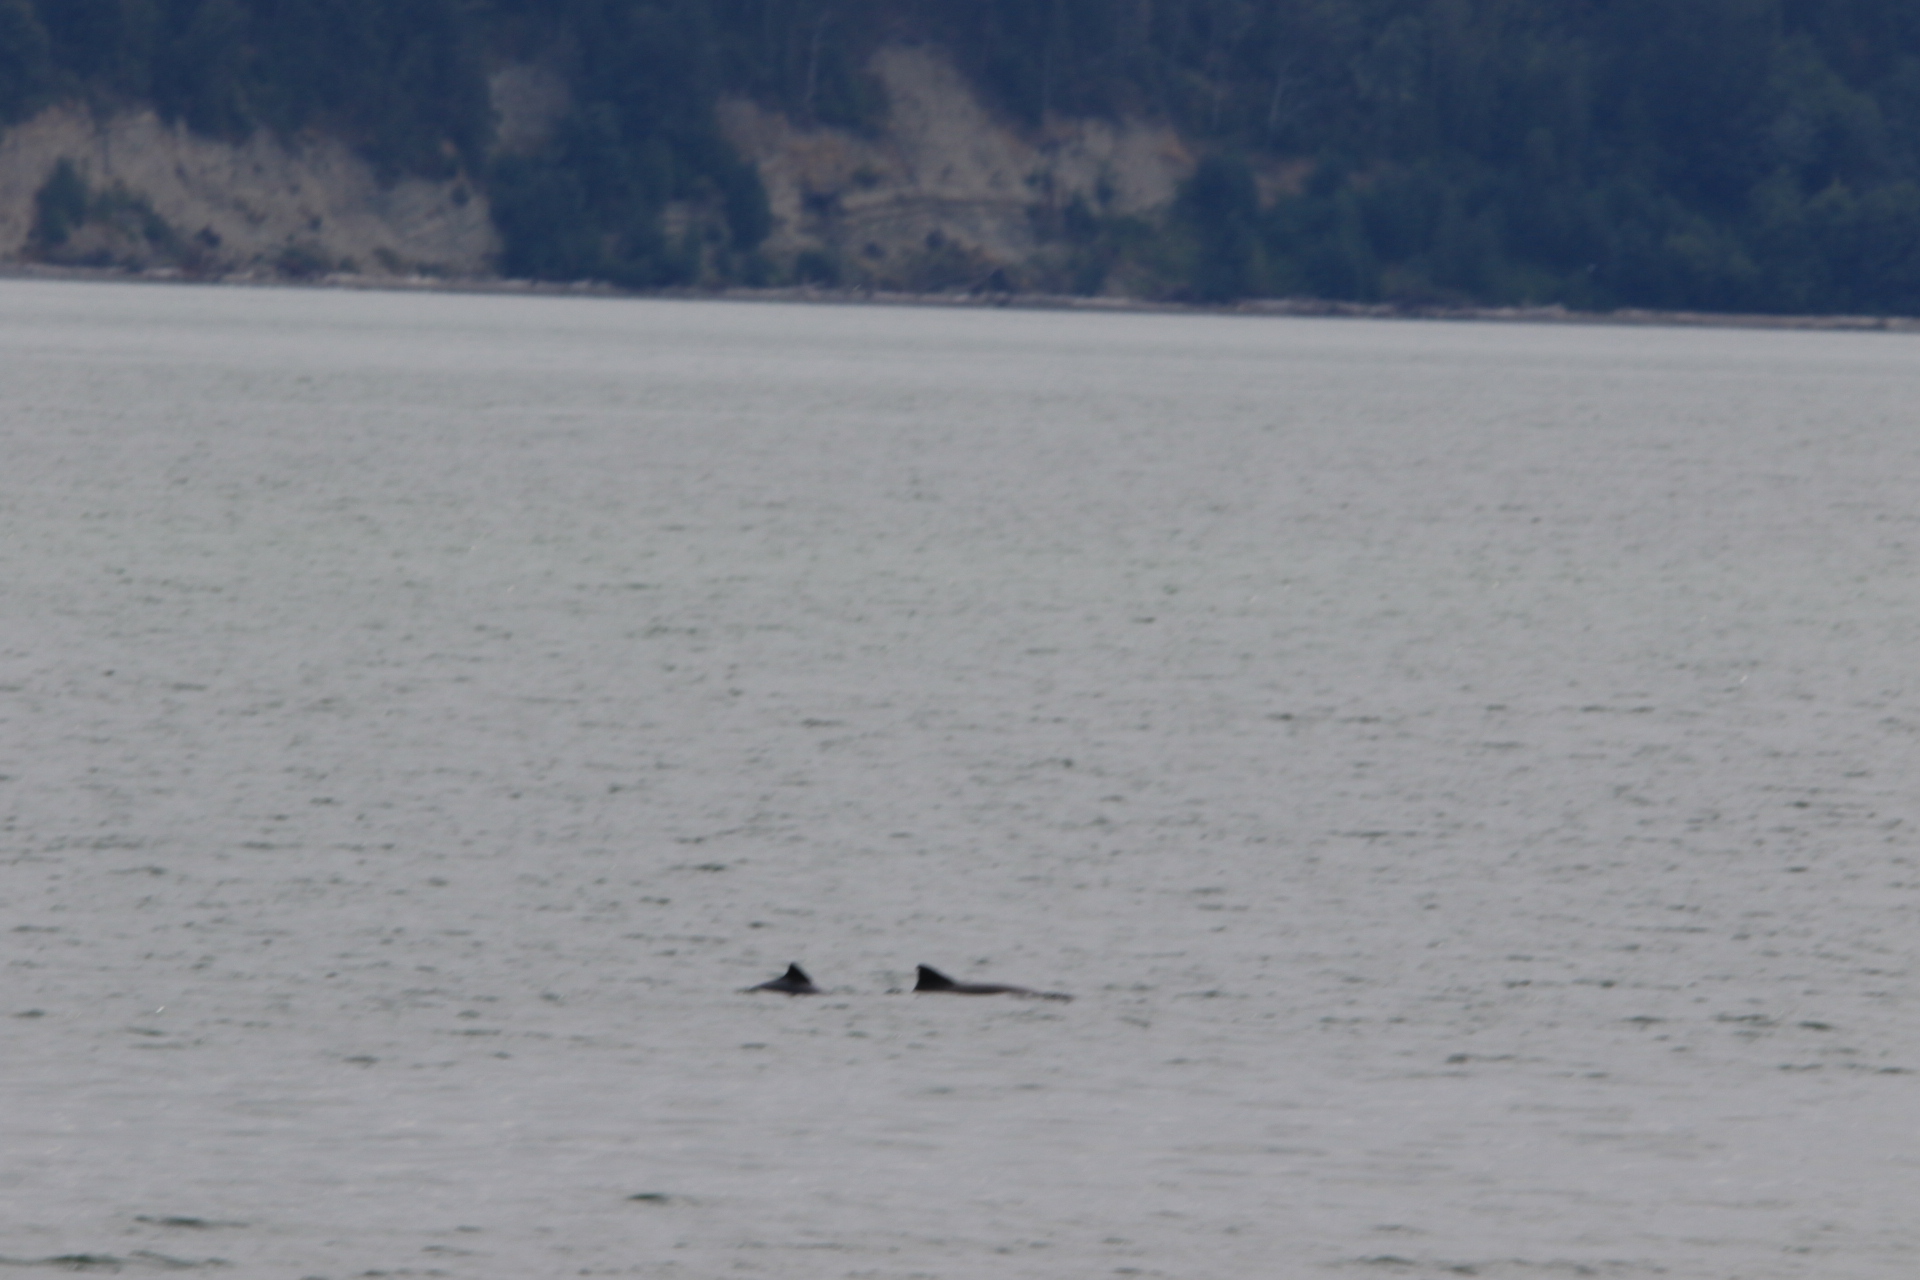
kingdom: Animalia
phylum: Chordata
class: Mammalia
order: Cetacea
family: Phocoenidae
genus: Phocoena
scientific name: Phocoena phocoena
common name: Harbor porpoise
